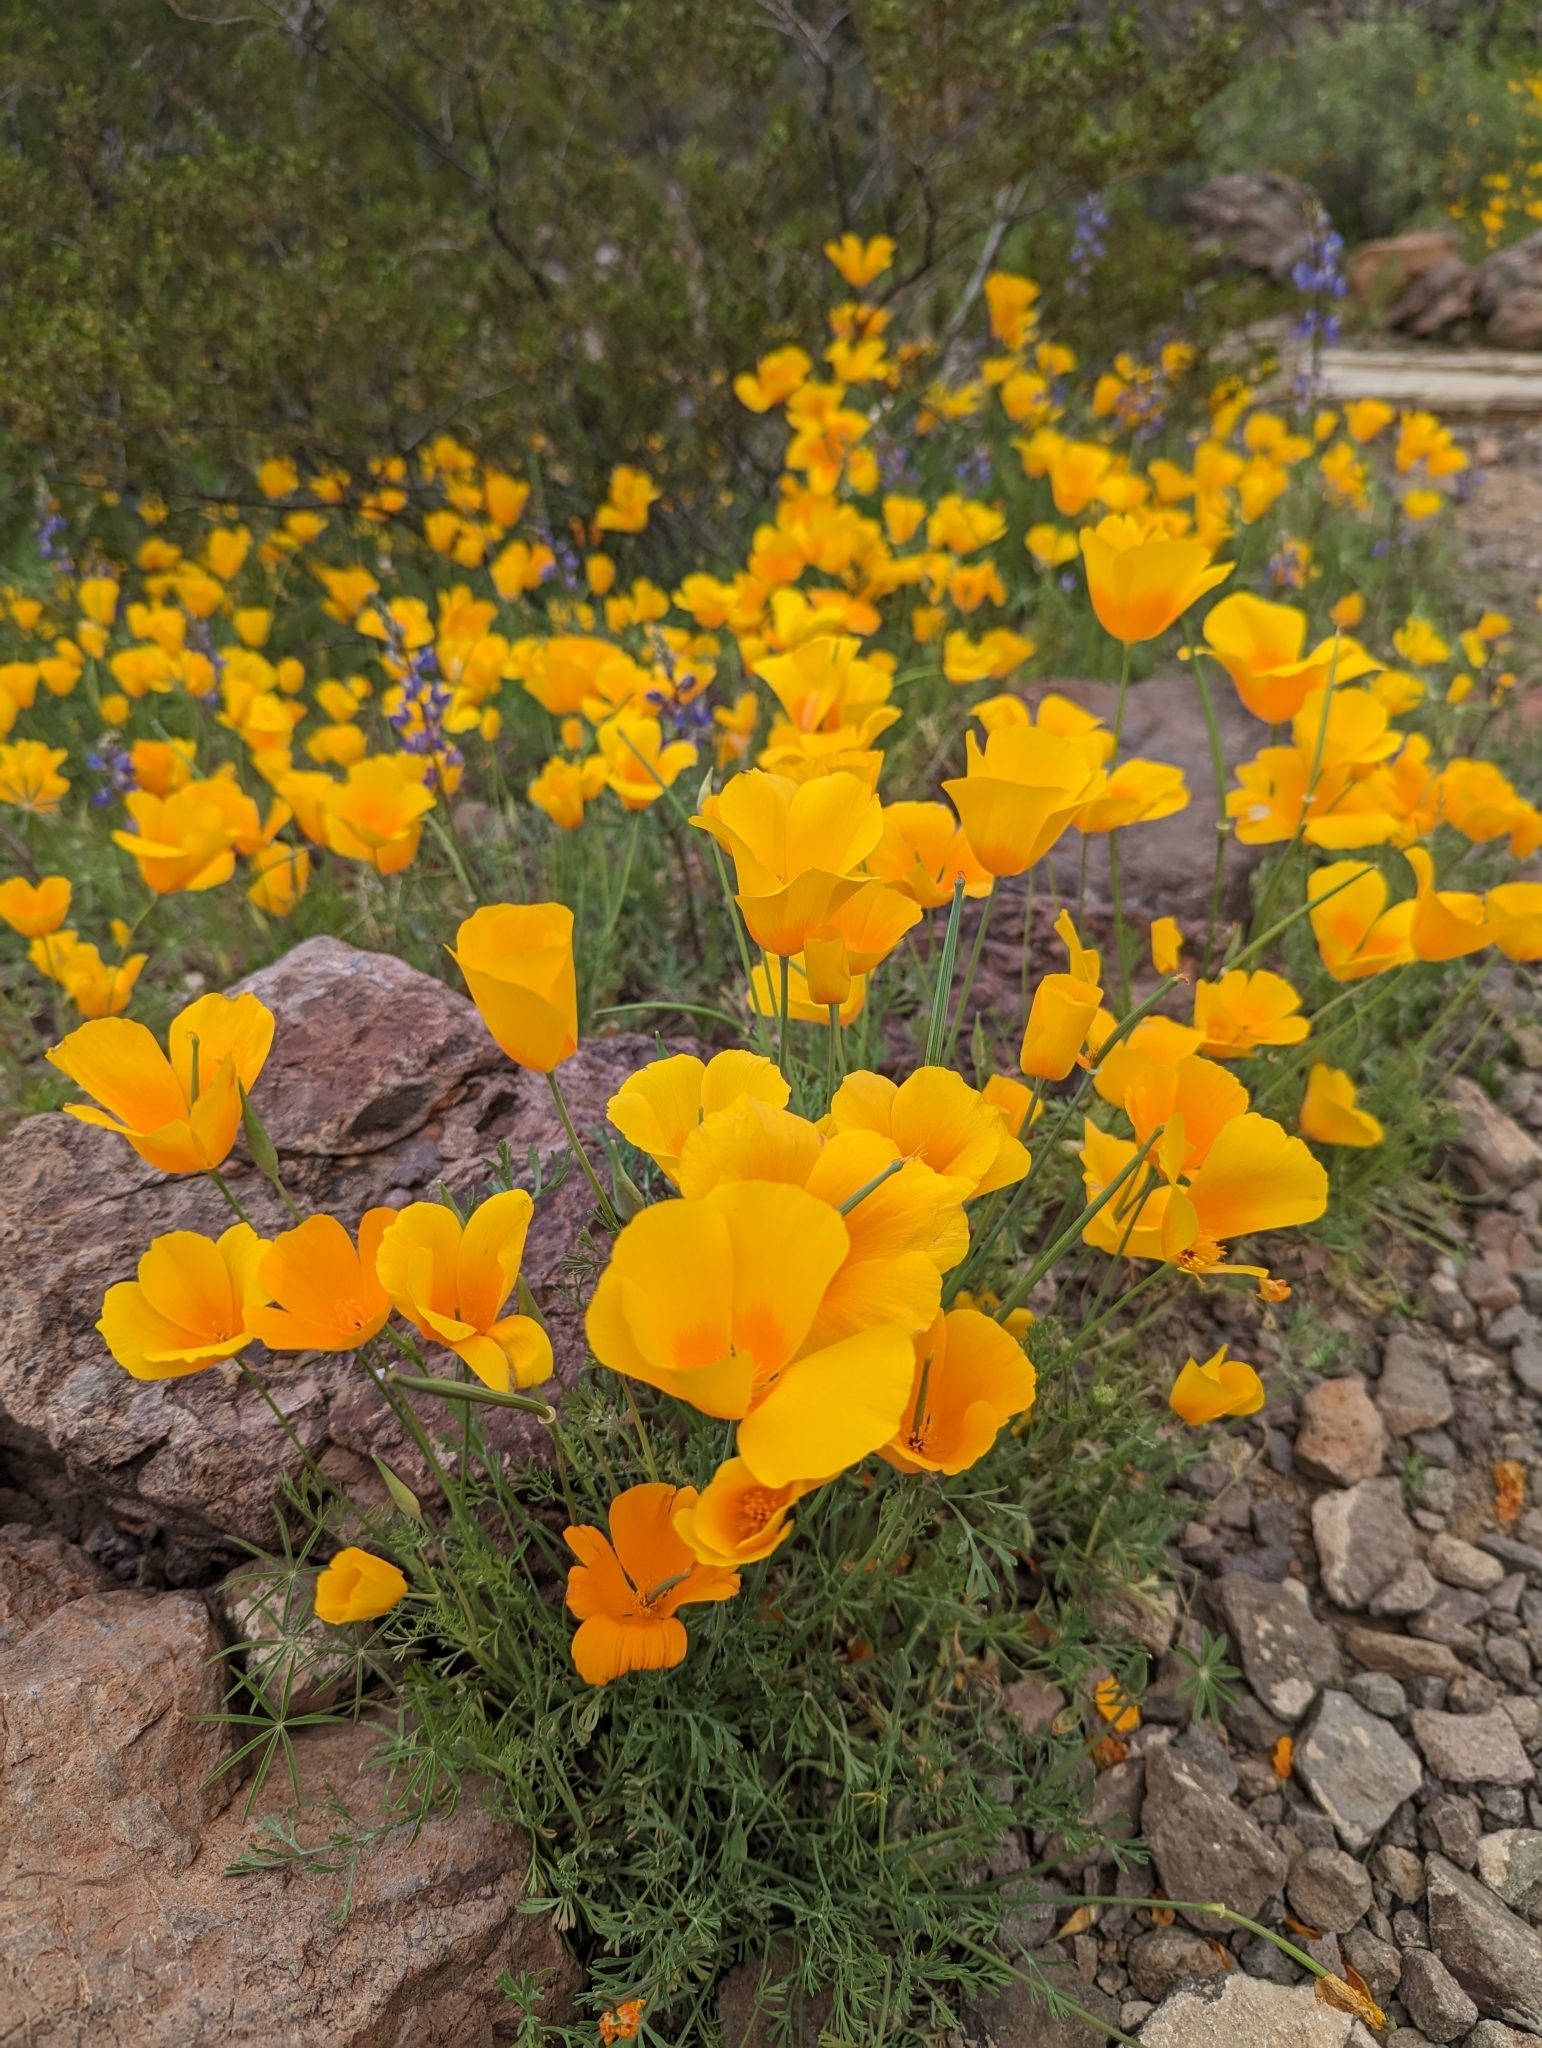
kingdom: Plantae
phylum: Tracheophyta
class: Magnoliopsida
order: Ranunculales
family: Papaveraceae
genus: Eschscholzia
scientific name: Eschscholzia californica
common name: California poppy
